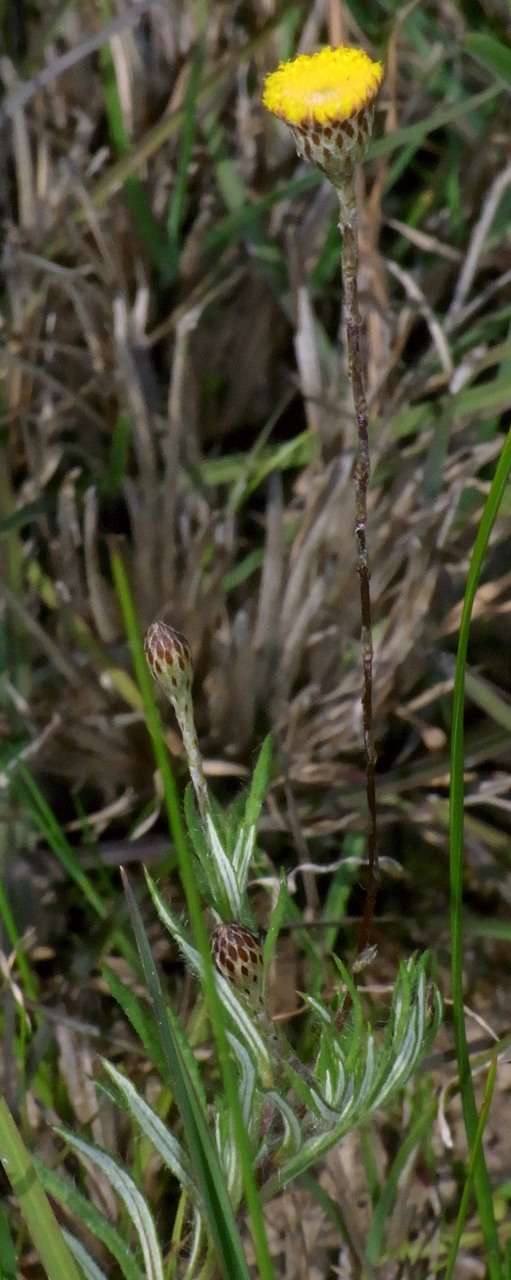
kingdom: Plantae
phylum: Tracheophyta
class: Magnoliopsida
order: Asterales
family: Asteraceae
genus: Leptorhynchos
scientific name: Leptorhynchos squamatus
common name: Scaly-buttons
